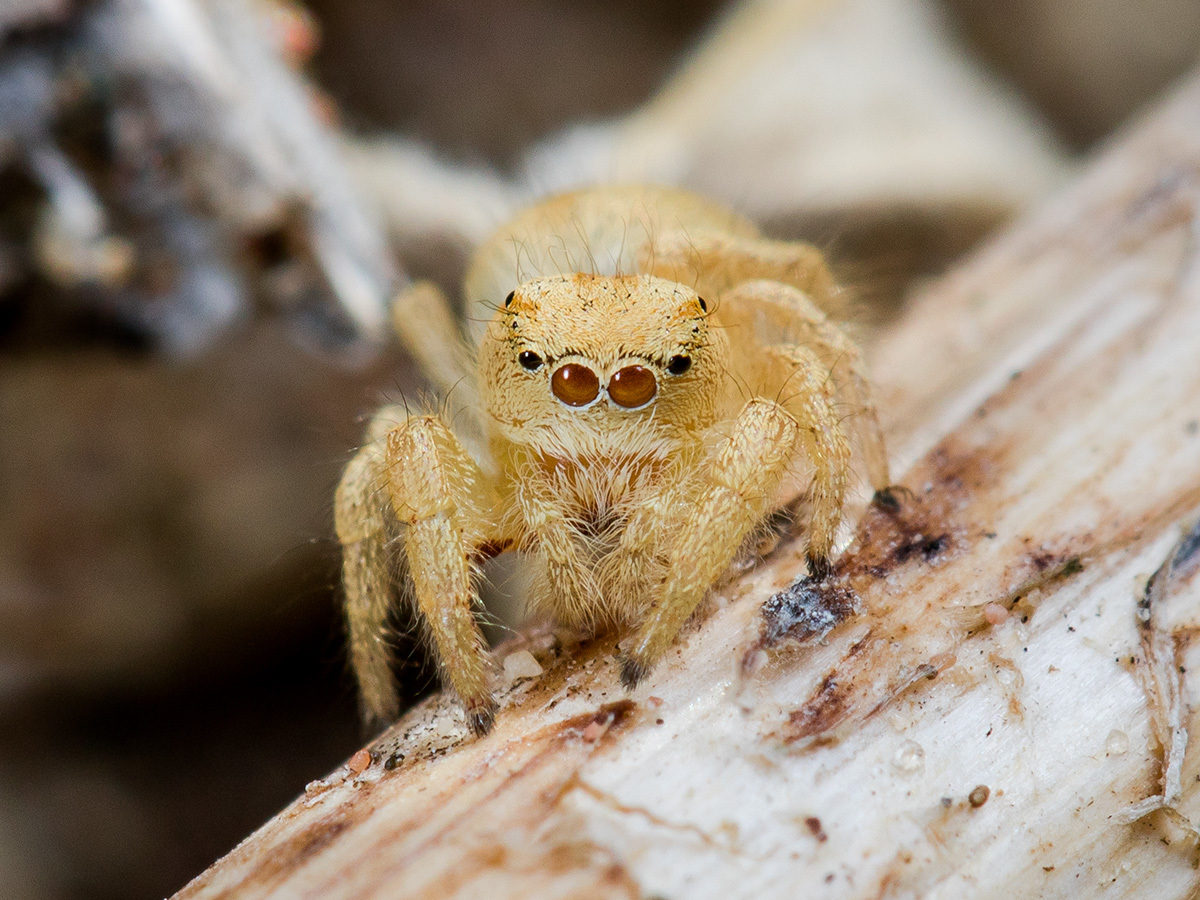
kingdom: Animalia
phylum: Arthropoda
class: Arachnida
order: Araneae
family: Salticidae
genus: Pseudomogrus
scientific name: Pseudomogrus zhilgaensis
